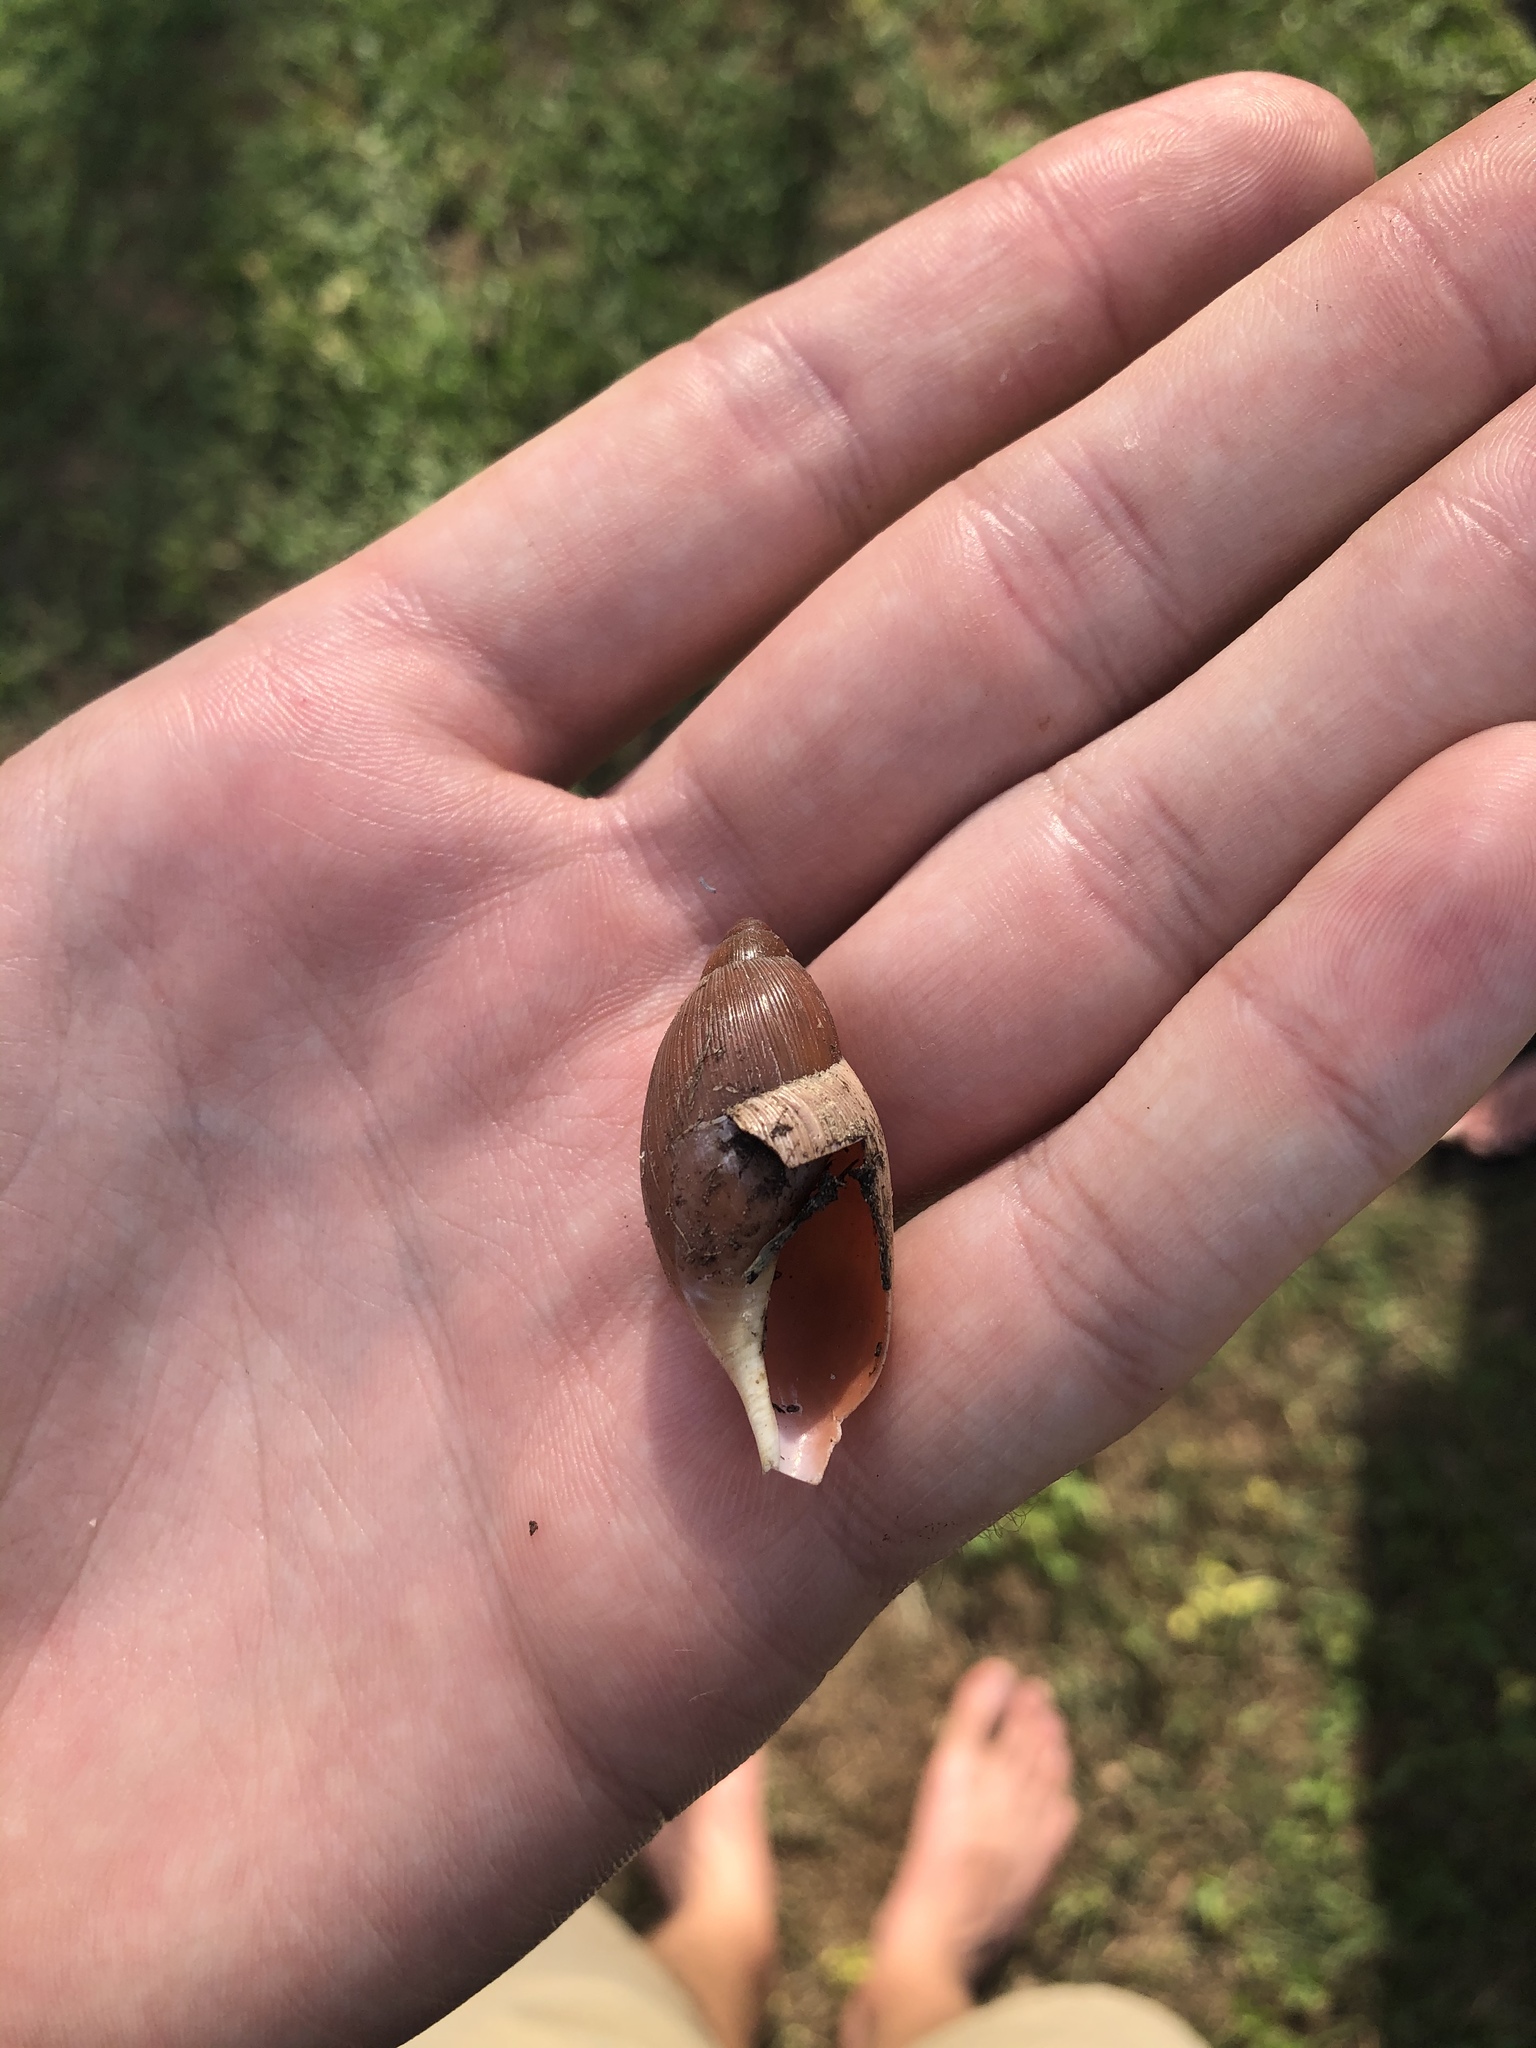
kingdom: Animalia
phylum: Mollusca
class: Gastropoda
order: Stylommatophora
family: Spiraxidae
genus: Euglandina
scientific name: Euglandina rosea
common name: Rosy wolfsnail
